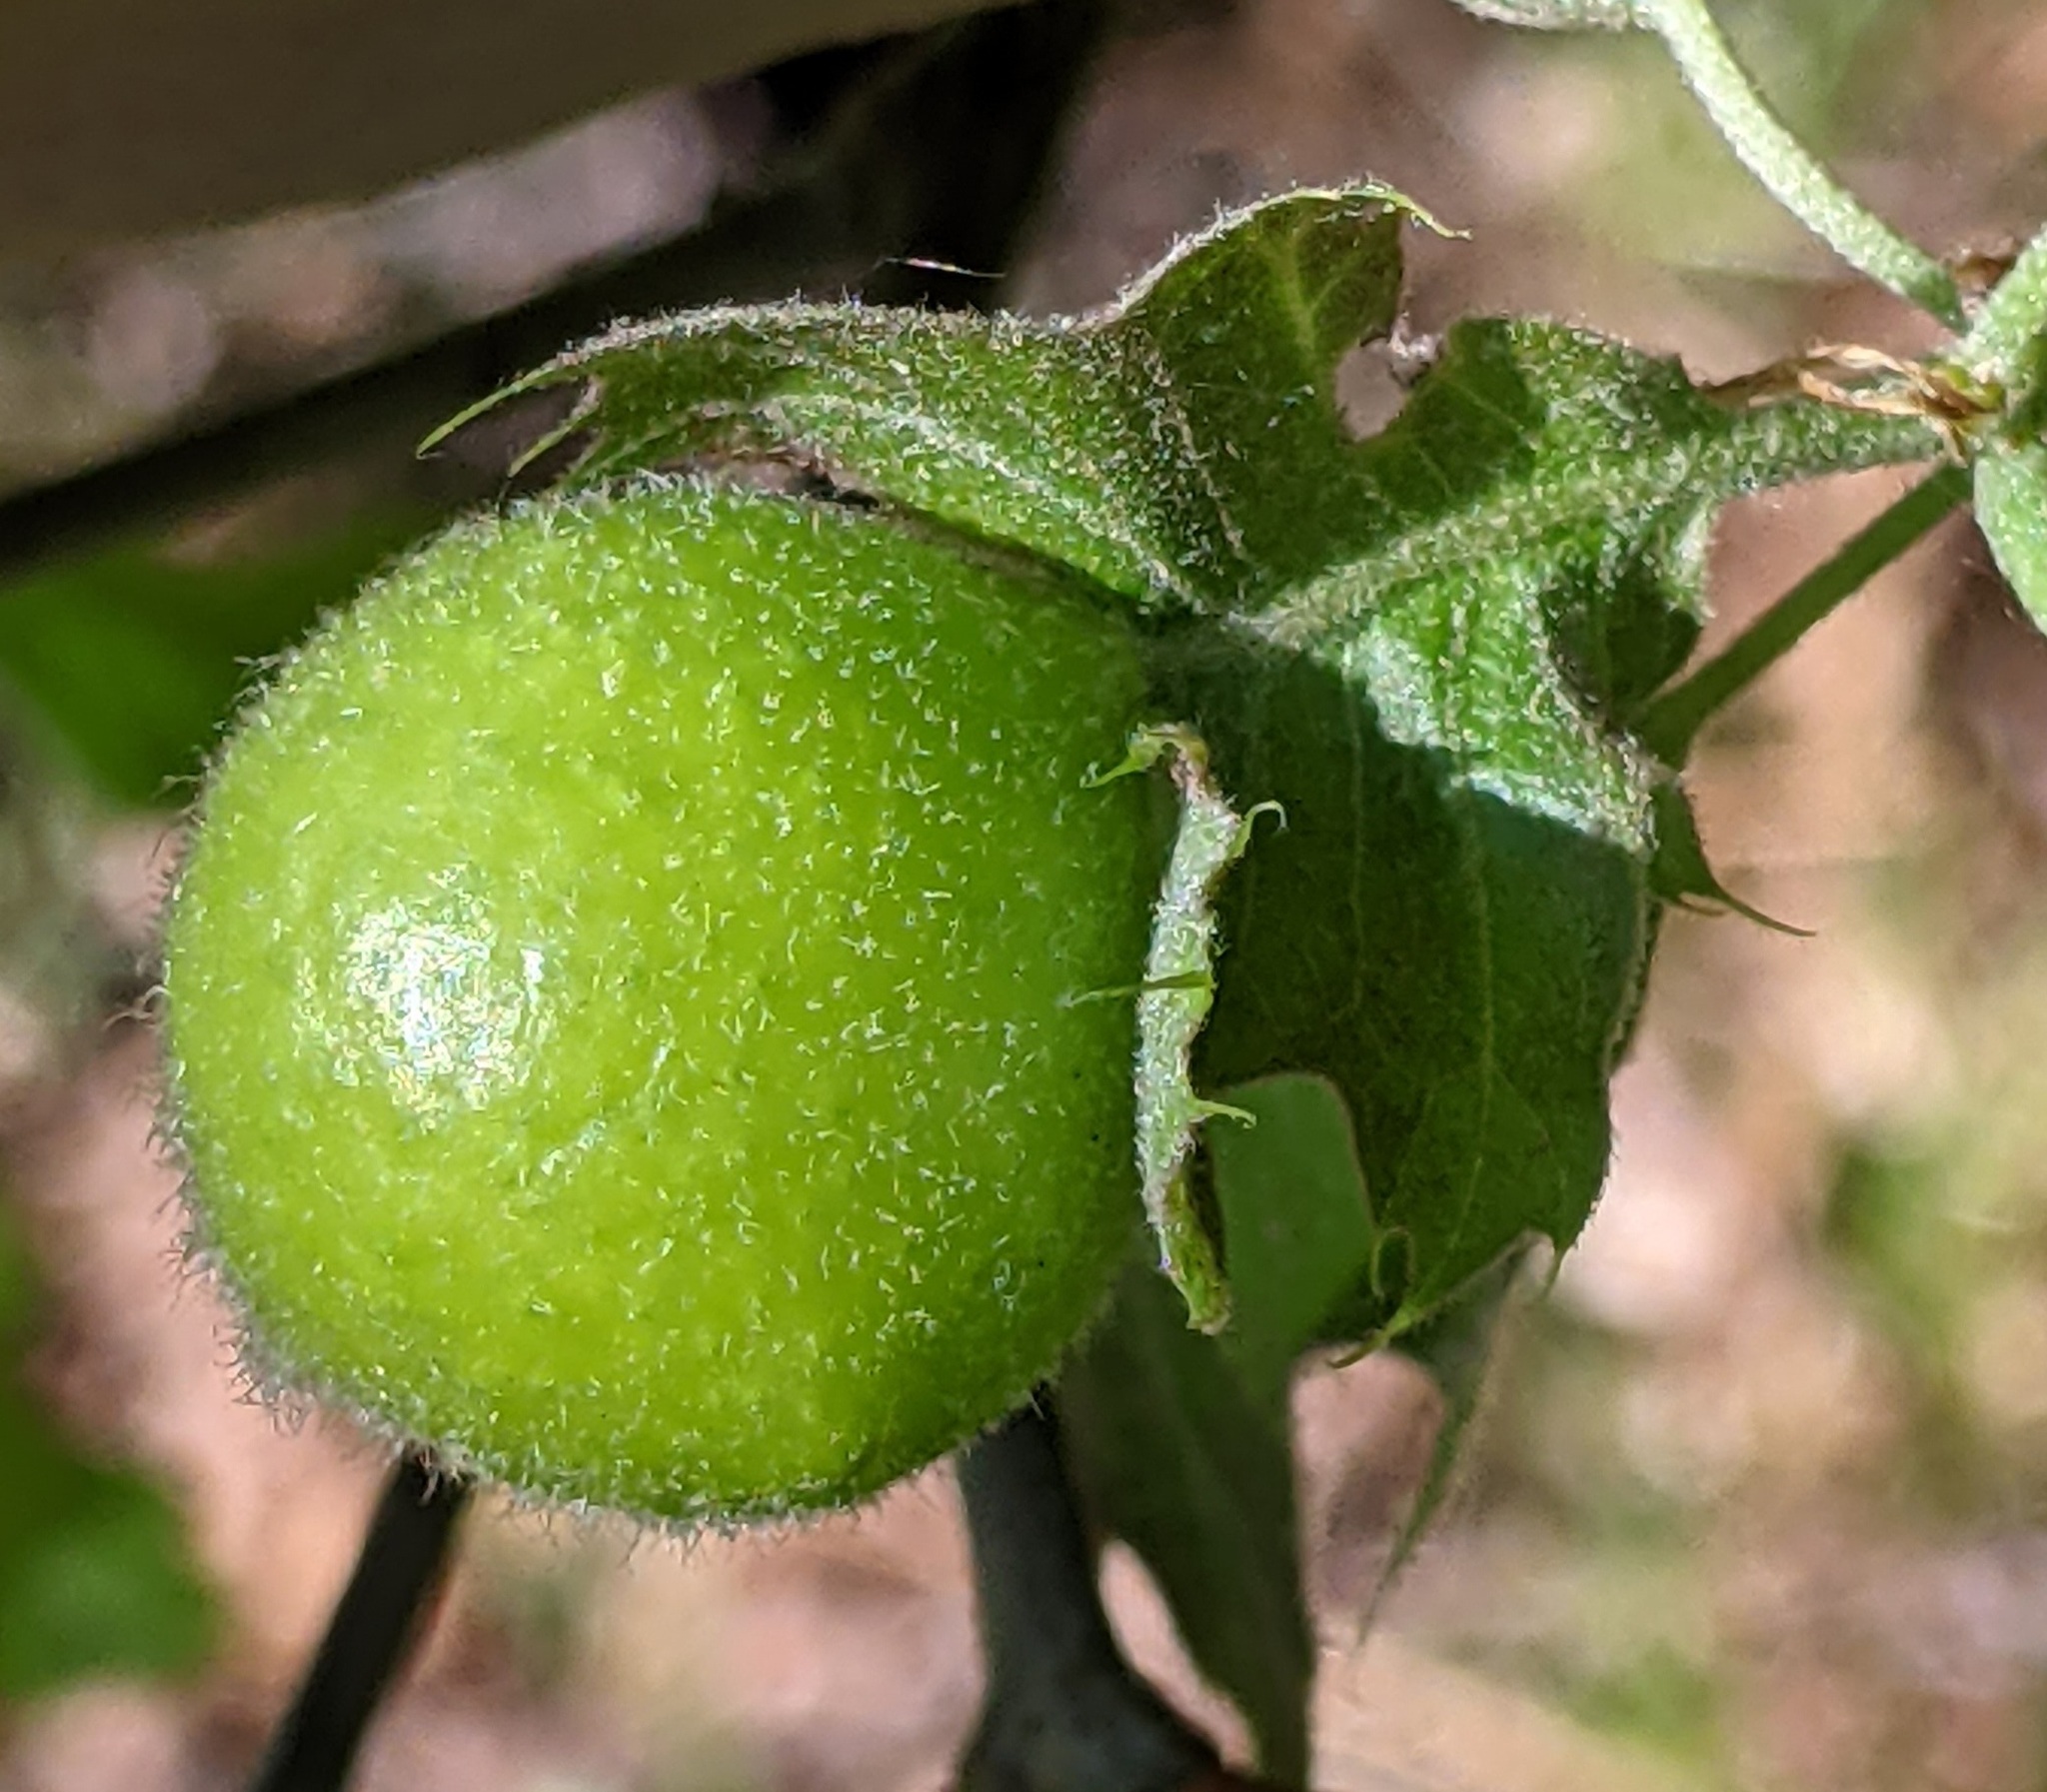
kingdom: Animalia
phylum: Arthropoda
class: Insecta
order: Hymenoptera
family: Cynipidae
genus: Amphibolips
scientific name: Amphibolips
